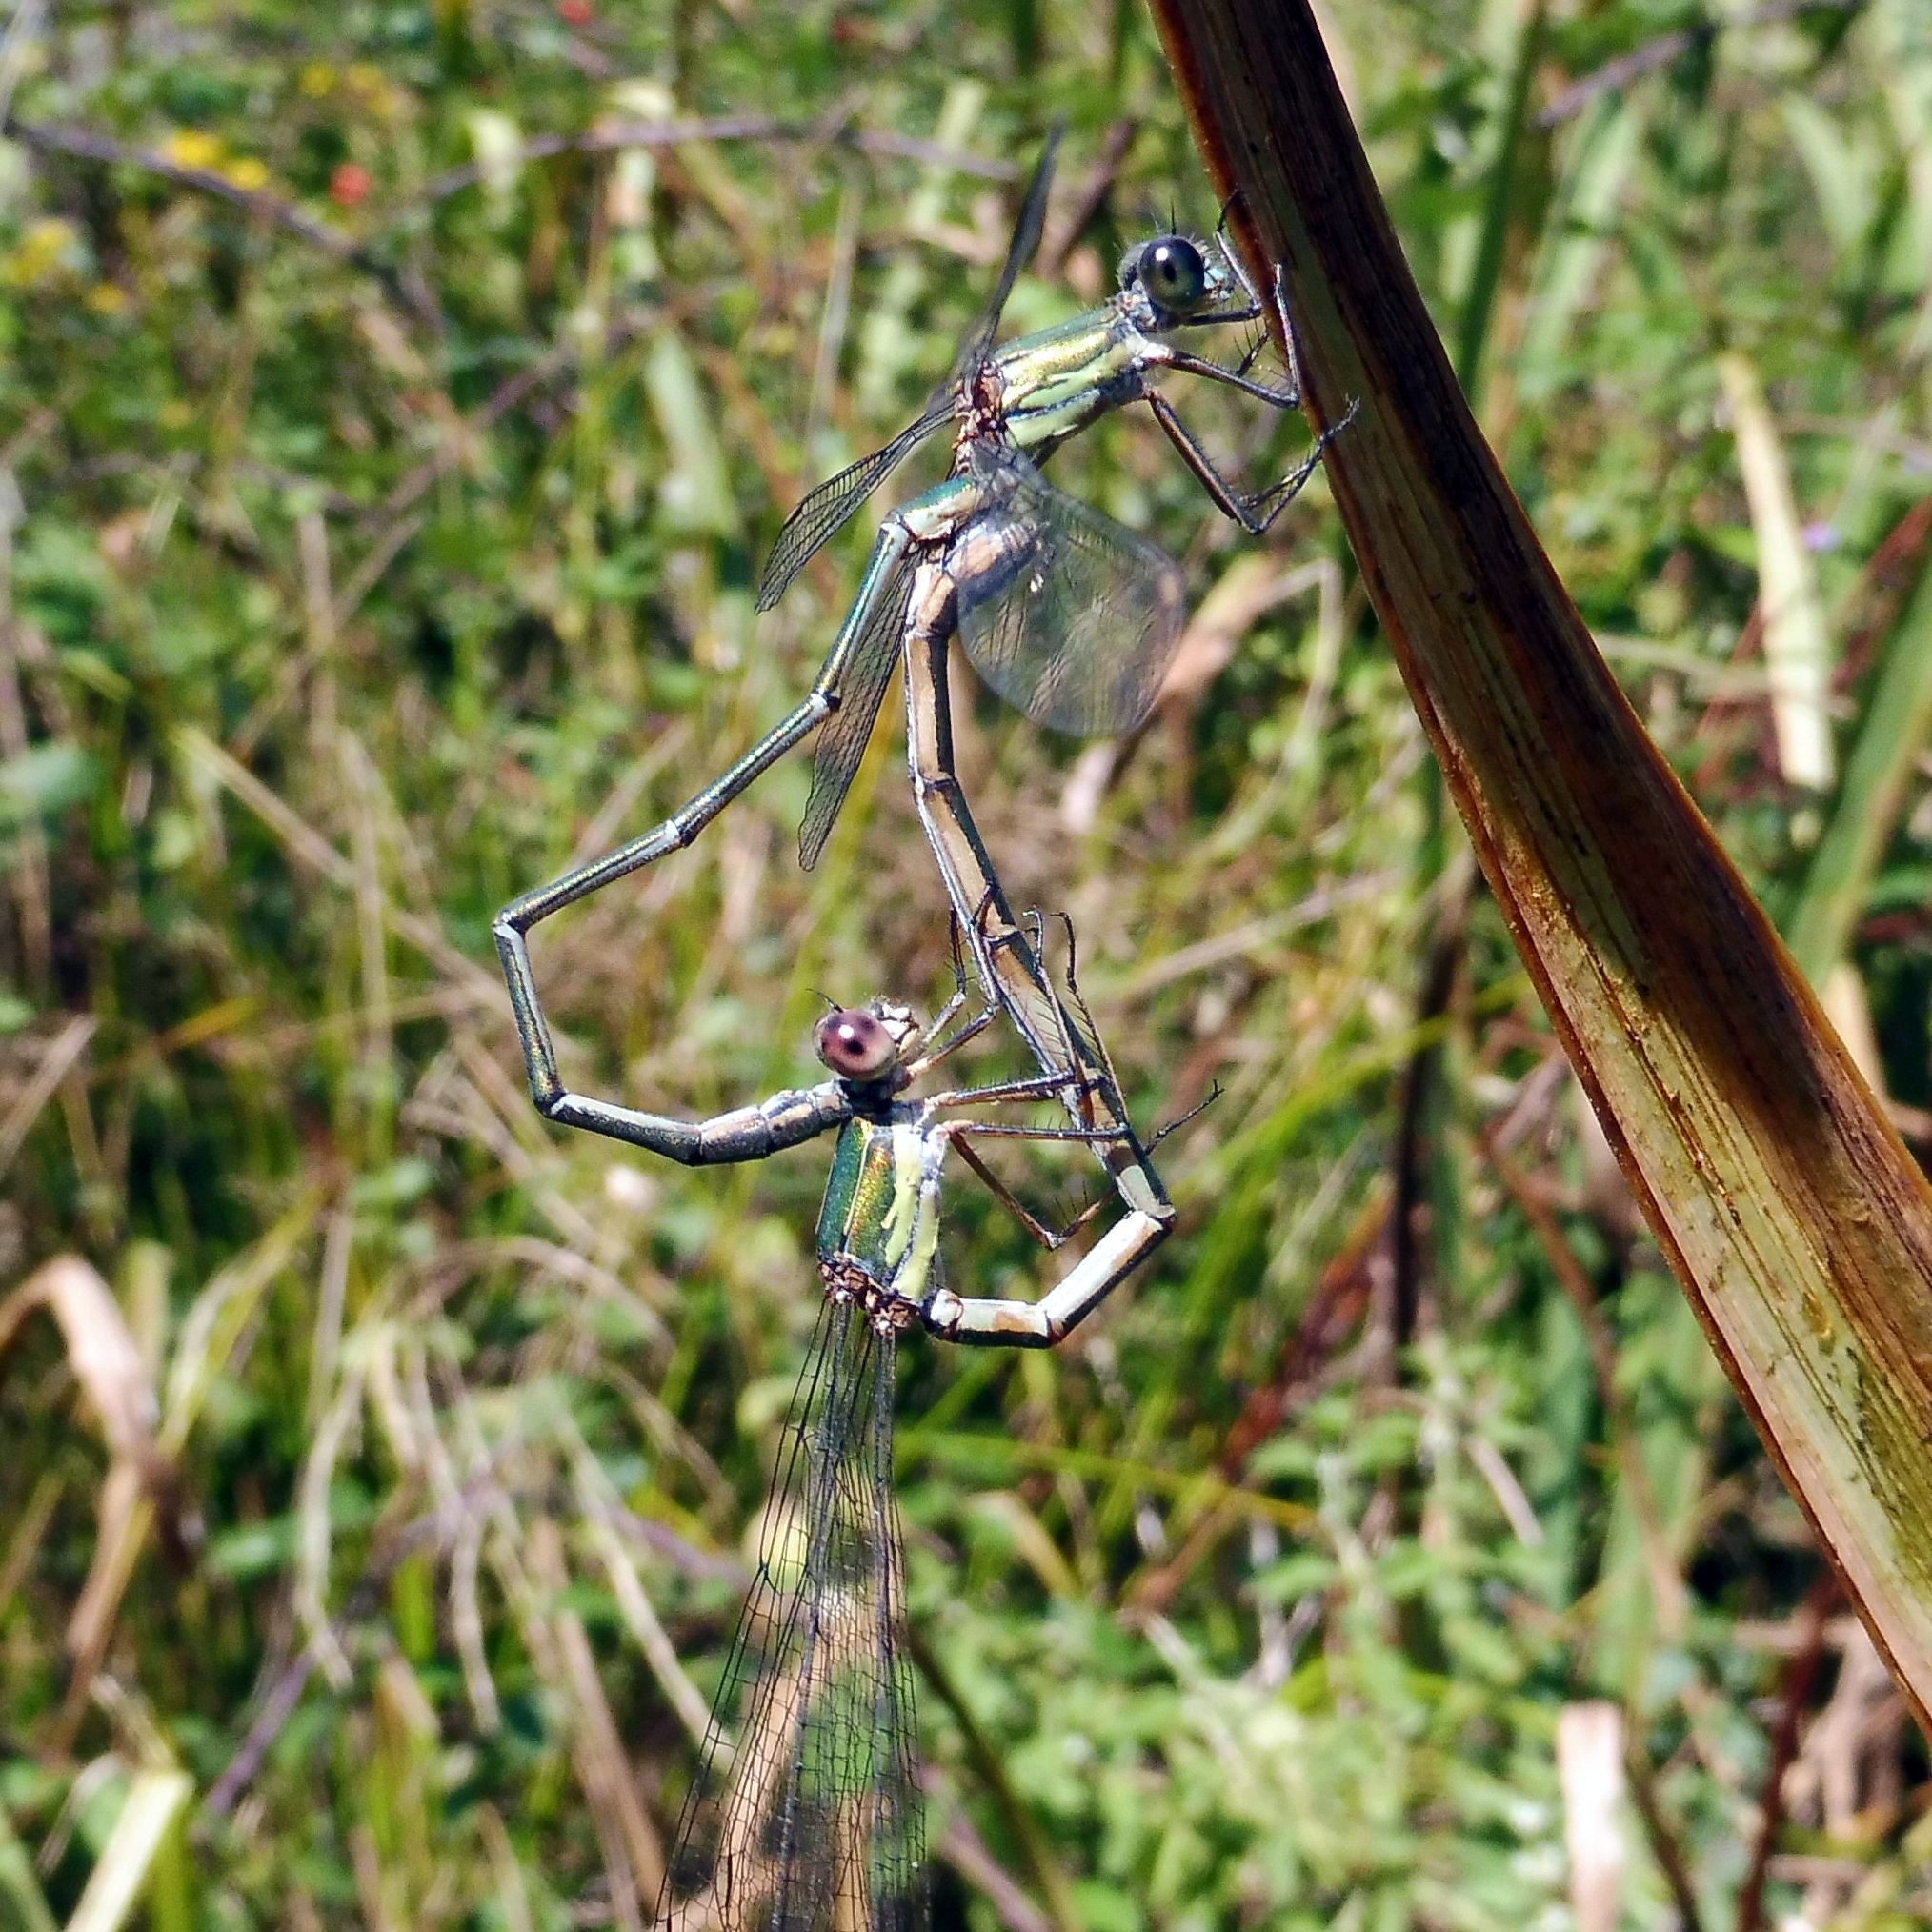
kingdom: Animalia
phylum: Arthropoda
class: Insecta
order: Odonata
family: Lestidae
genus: Chalcolestes
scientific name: Chalcolestes viridis
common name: Green emerald damselfly
